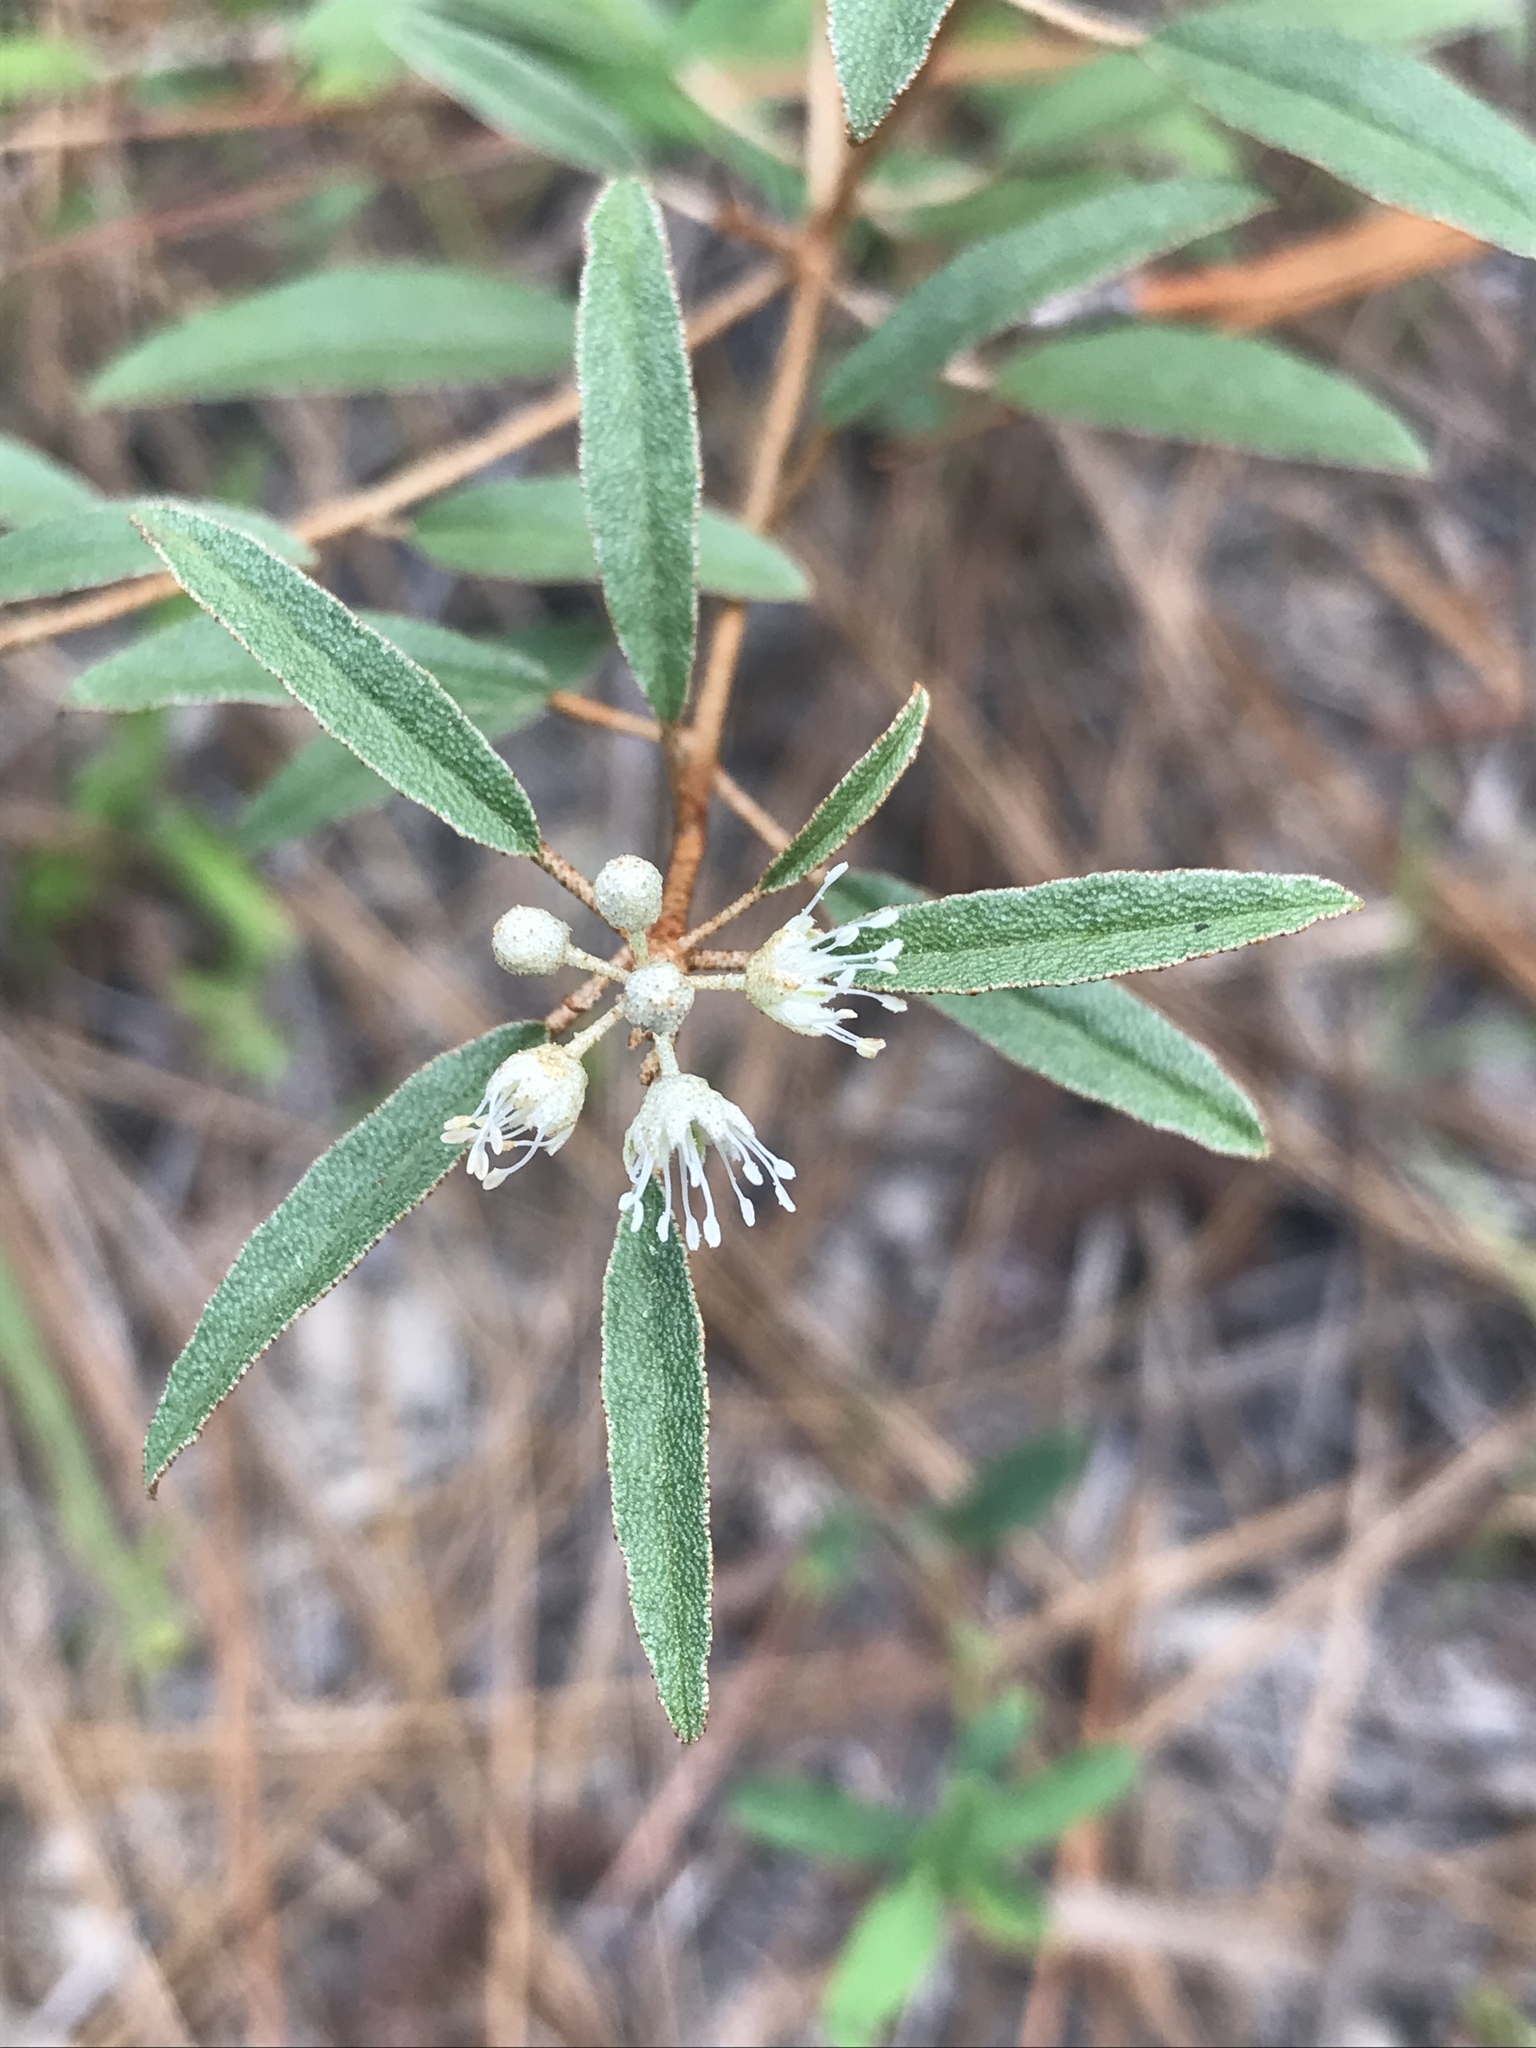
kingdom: Plantae
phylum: Tracheophyta
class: Magnoliopsida
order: Malpighiales
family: Euphorbiaceae
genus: Croton
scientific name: Croton argyranthemus
